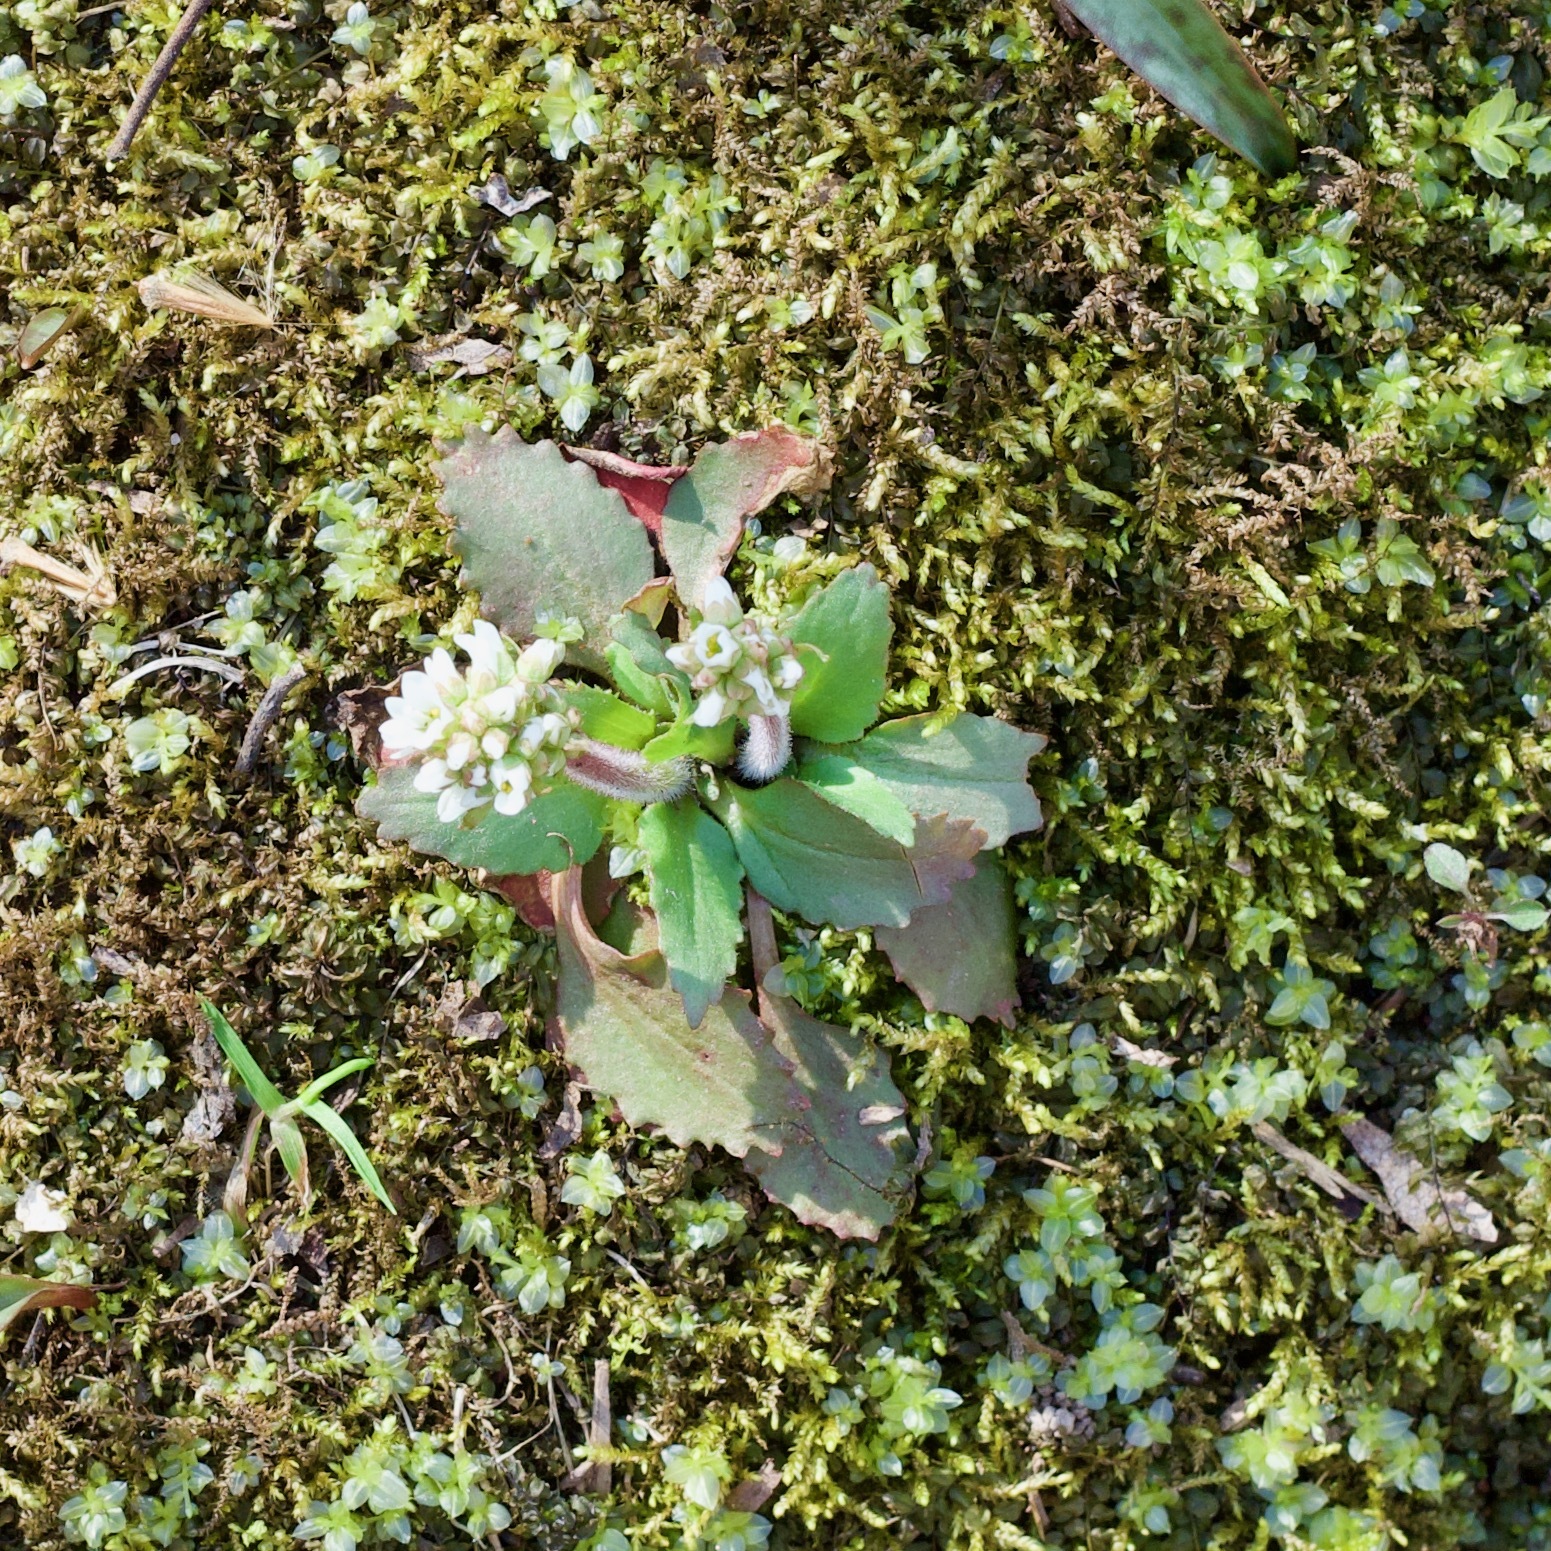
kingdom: Plantae
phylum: Tracheophyta
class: Magnoliopsida
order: Saxifragales
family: Saxifragaceae
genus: Micranthes
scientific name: Micranthes virginiensis
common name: Early saxifrage
